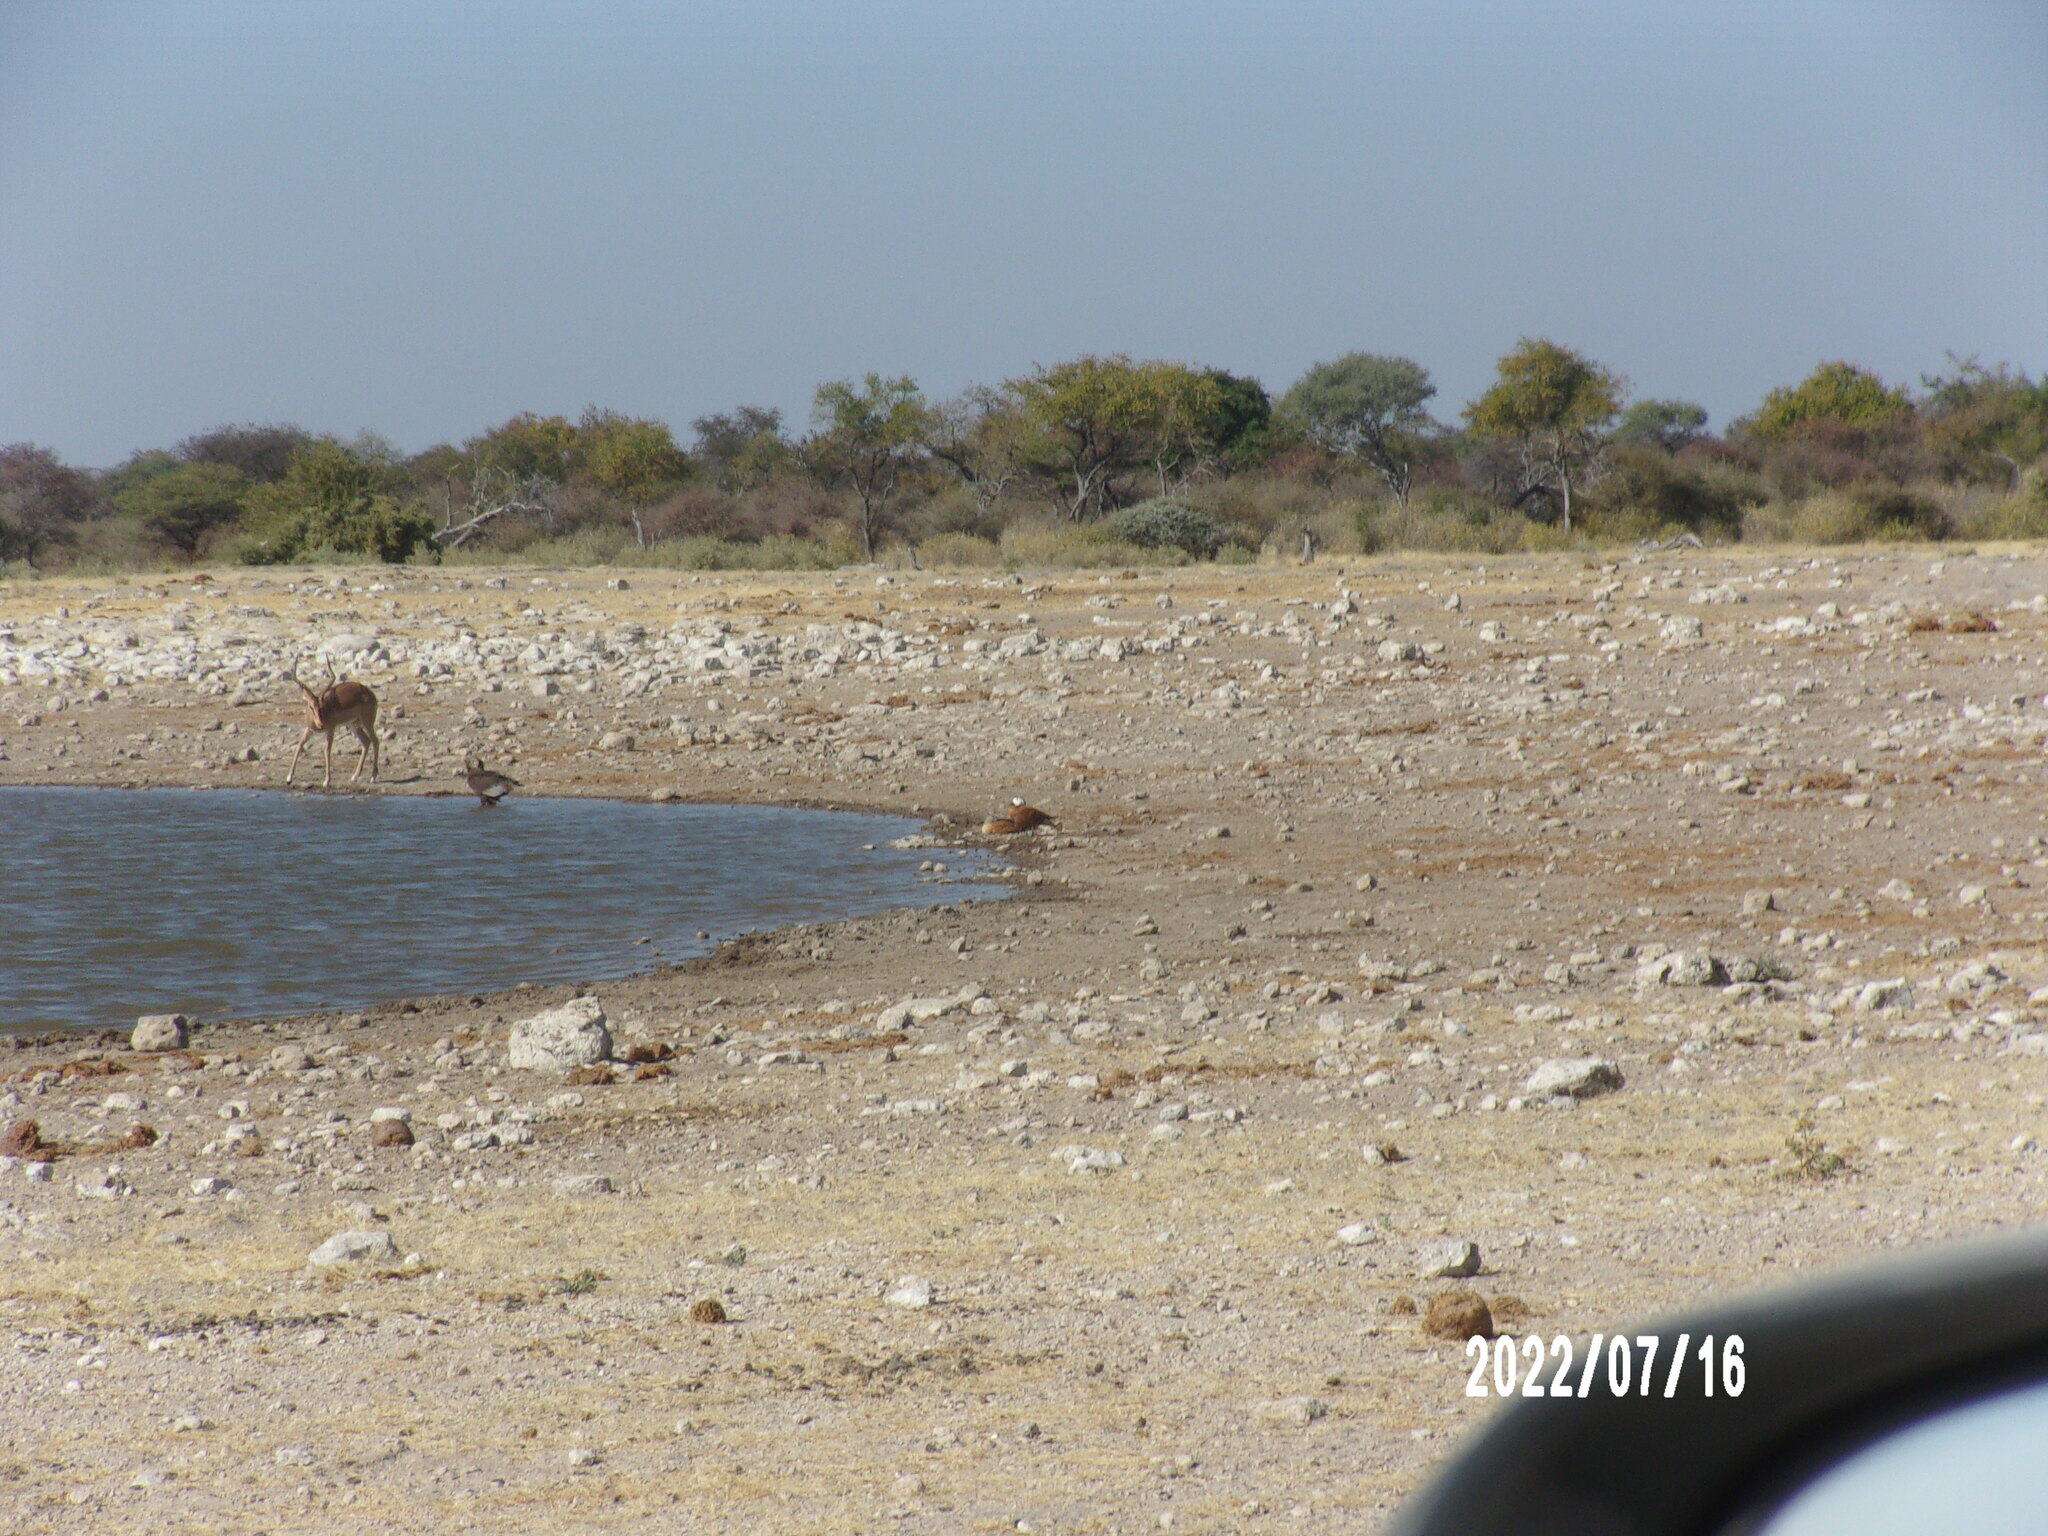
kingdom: Animalia
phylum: Chordata
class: Aves
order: Anseriformes
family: Anatidae
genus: Tadorna
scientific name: Tadorna cana
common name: South african shelduck
